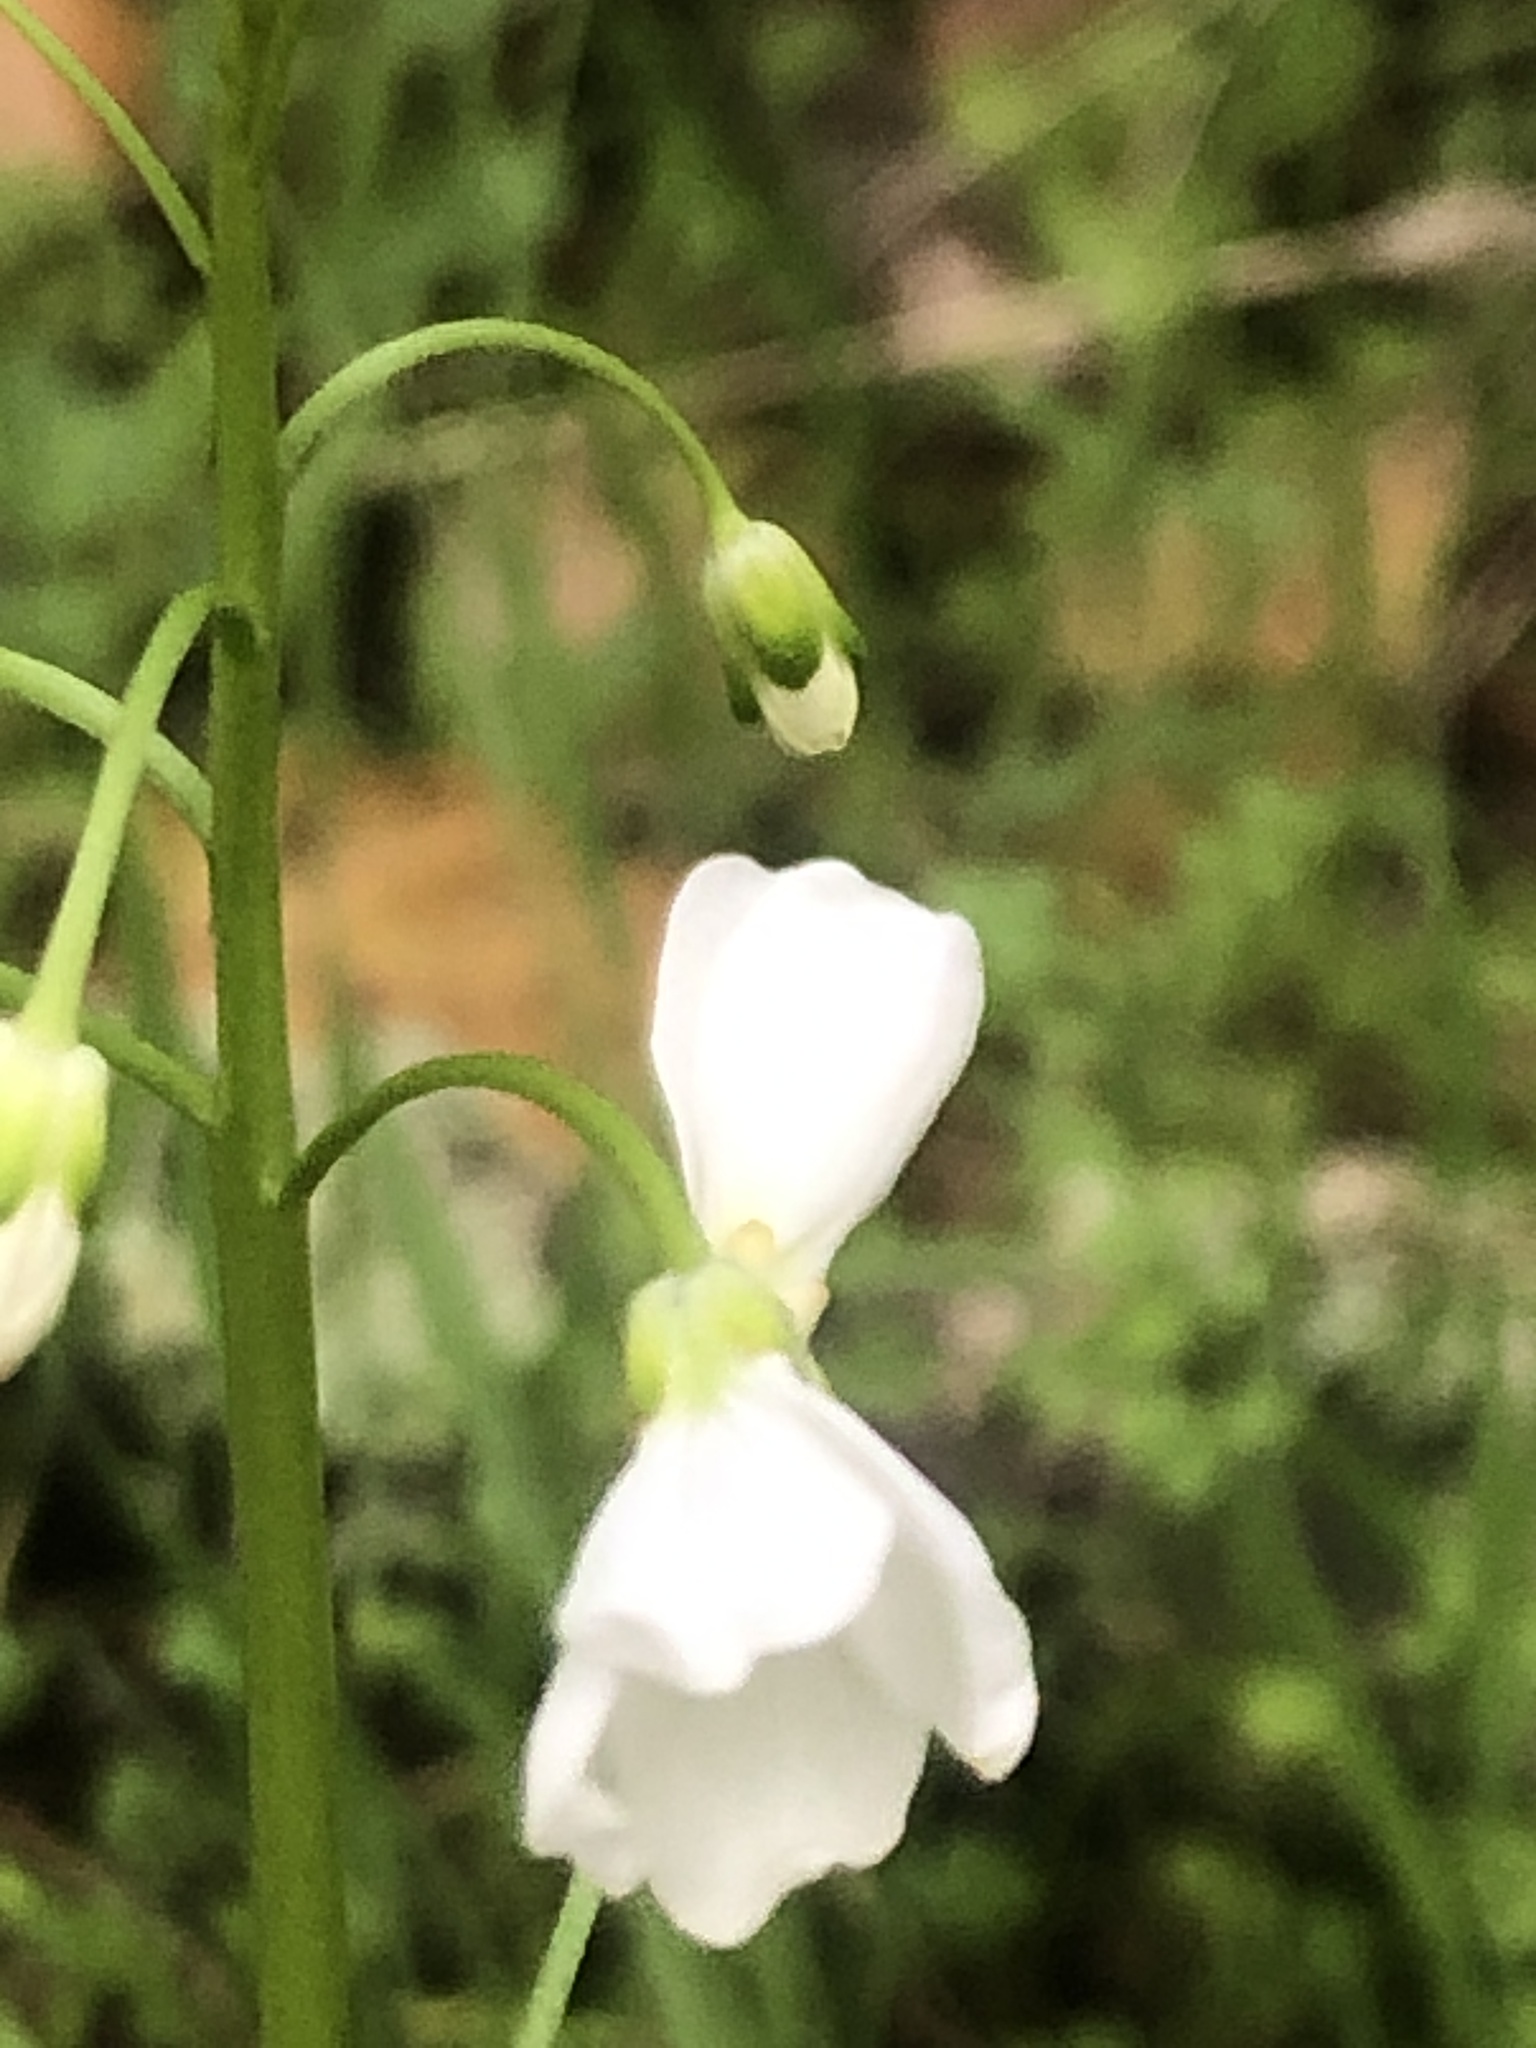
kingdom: Plantae
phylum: Tracheophyta
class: Magnoliopsida
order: Brassicales
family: Brassicaceae
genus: Cardamine
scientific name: Cardamine californica
